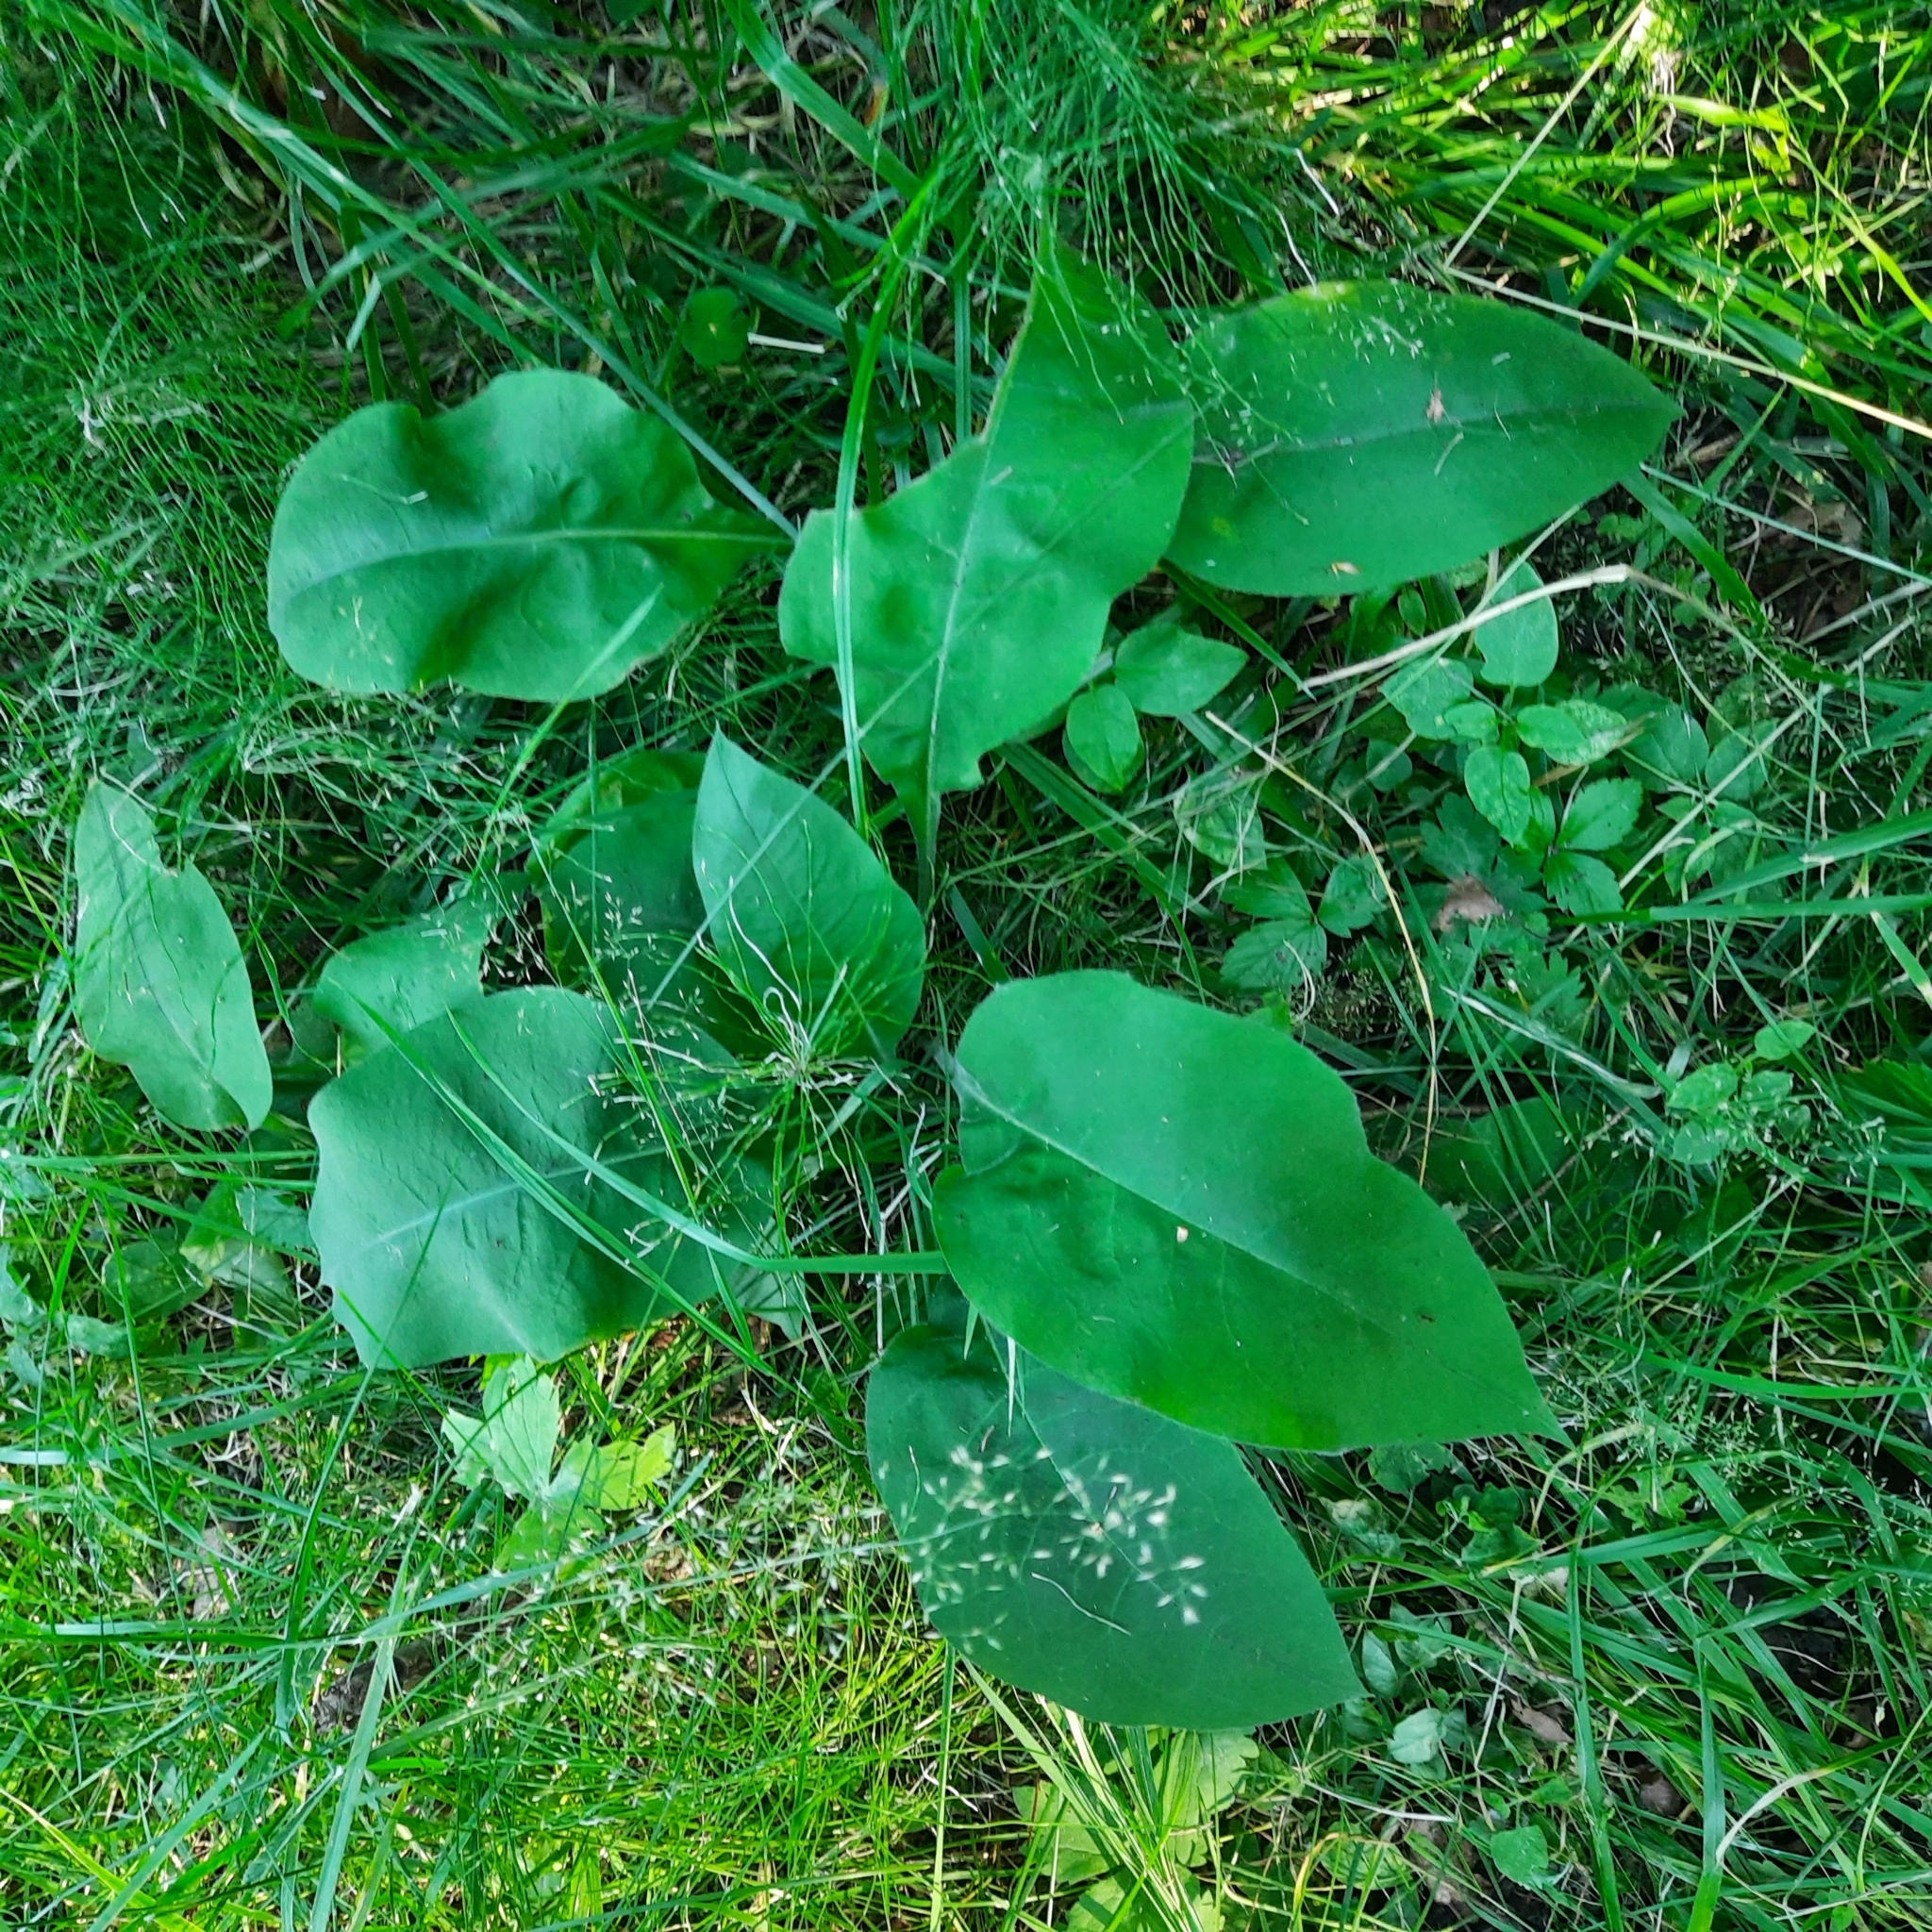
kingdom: Plantae
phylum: Tracheophyta
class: Magnoliopsida
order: Boraginales
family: Boraginaceae
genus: Pulmonaria
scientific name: Pulmonaria mollis
